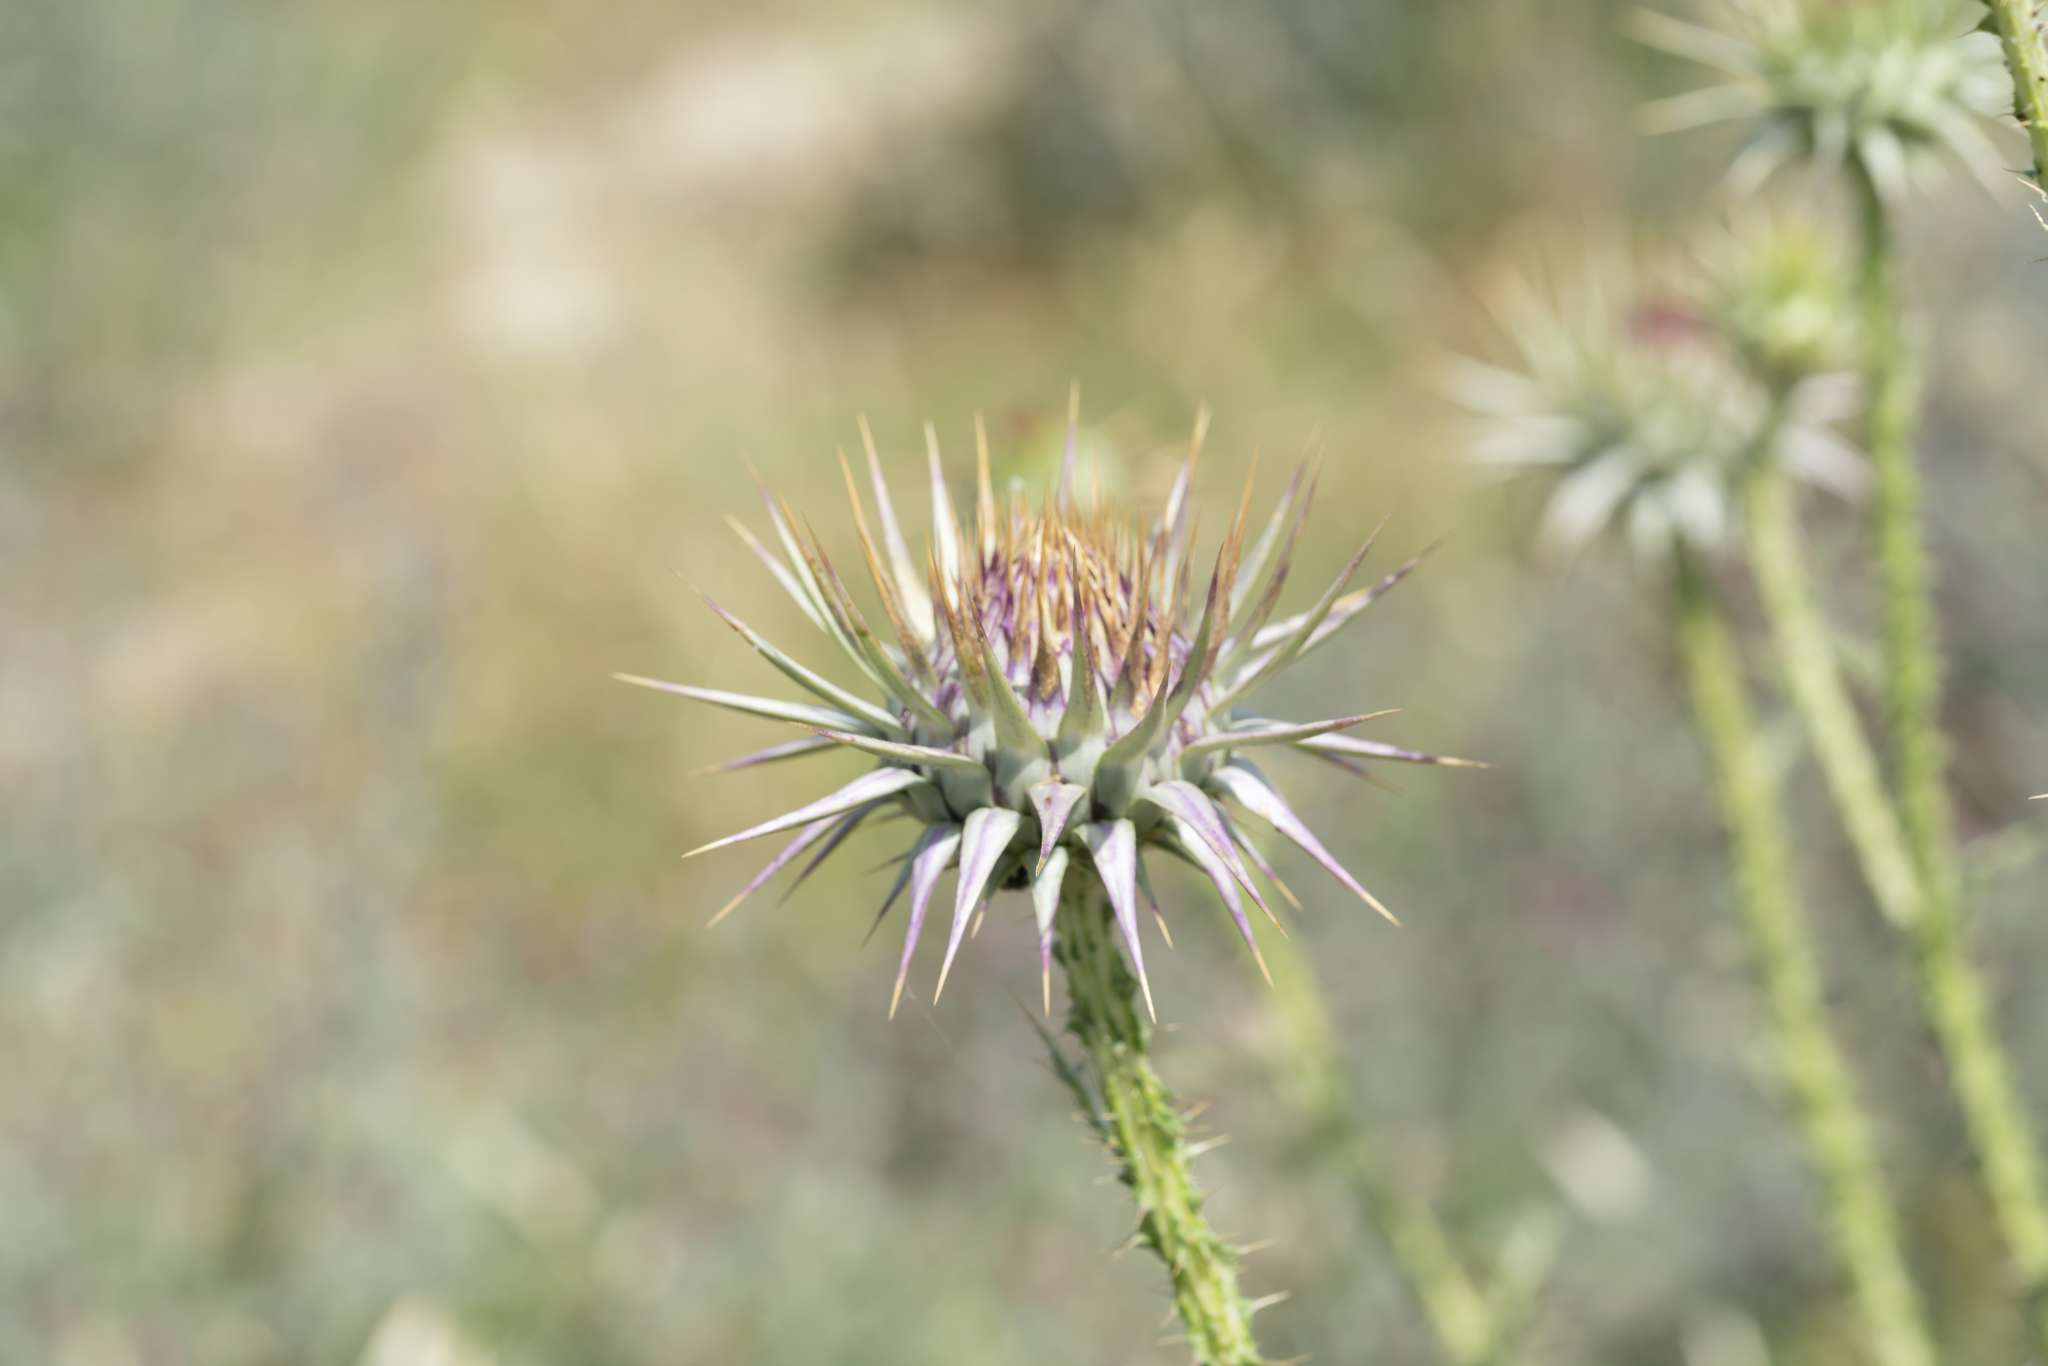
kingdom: Plantae
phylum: Tracheophyta
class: Magnoliopsida
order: Asterales
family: Asteraceae
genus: Onopordum
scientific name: Onopordum boissierianum
